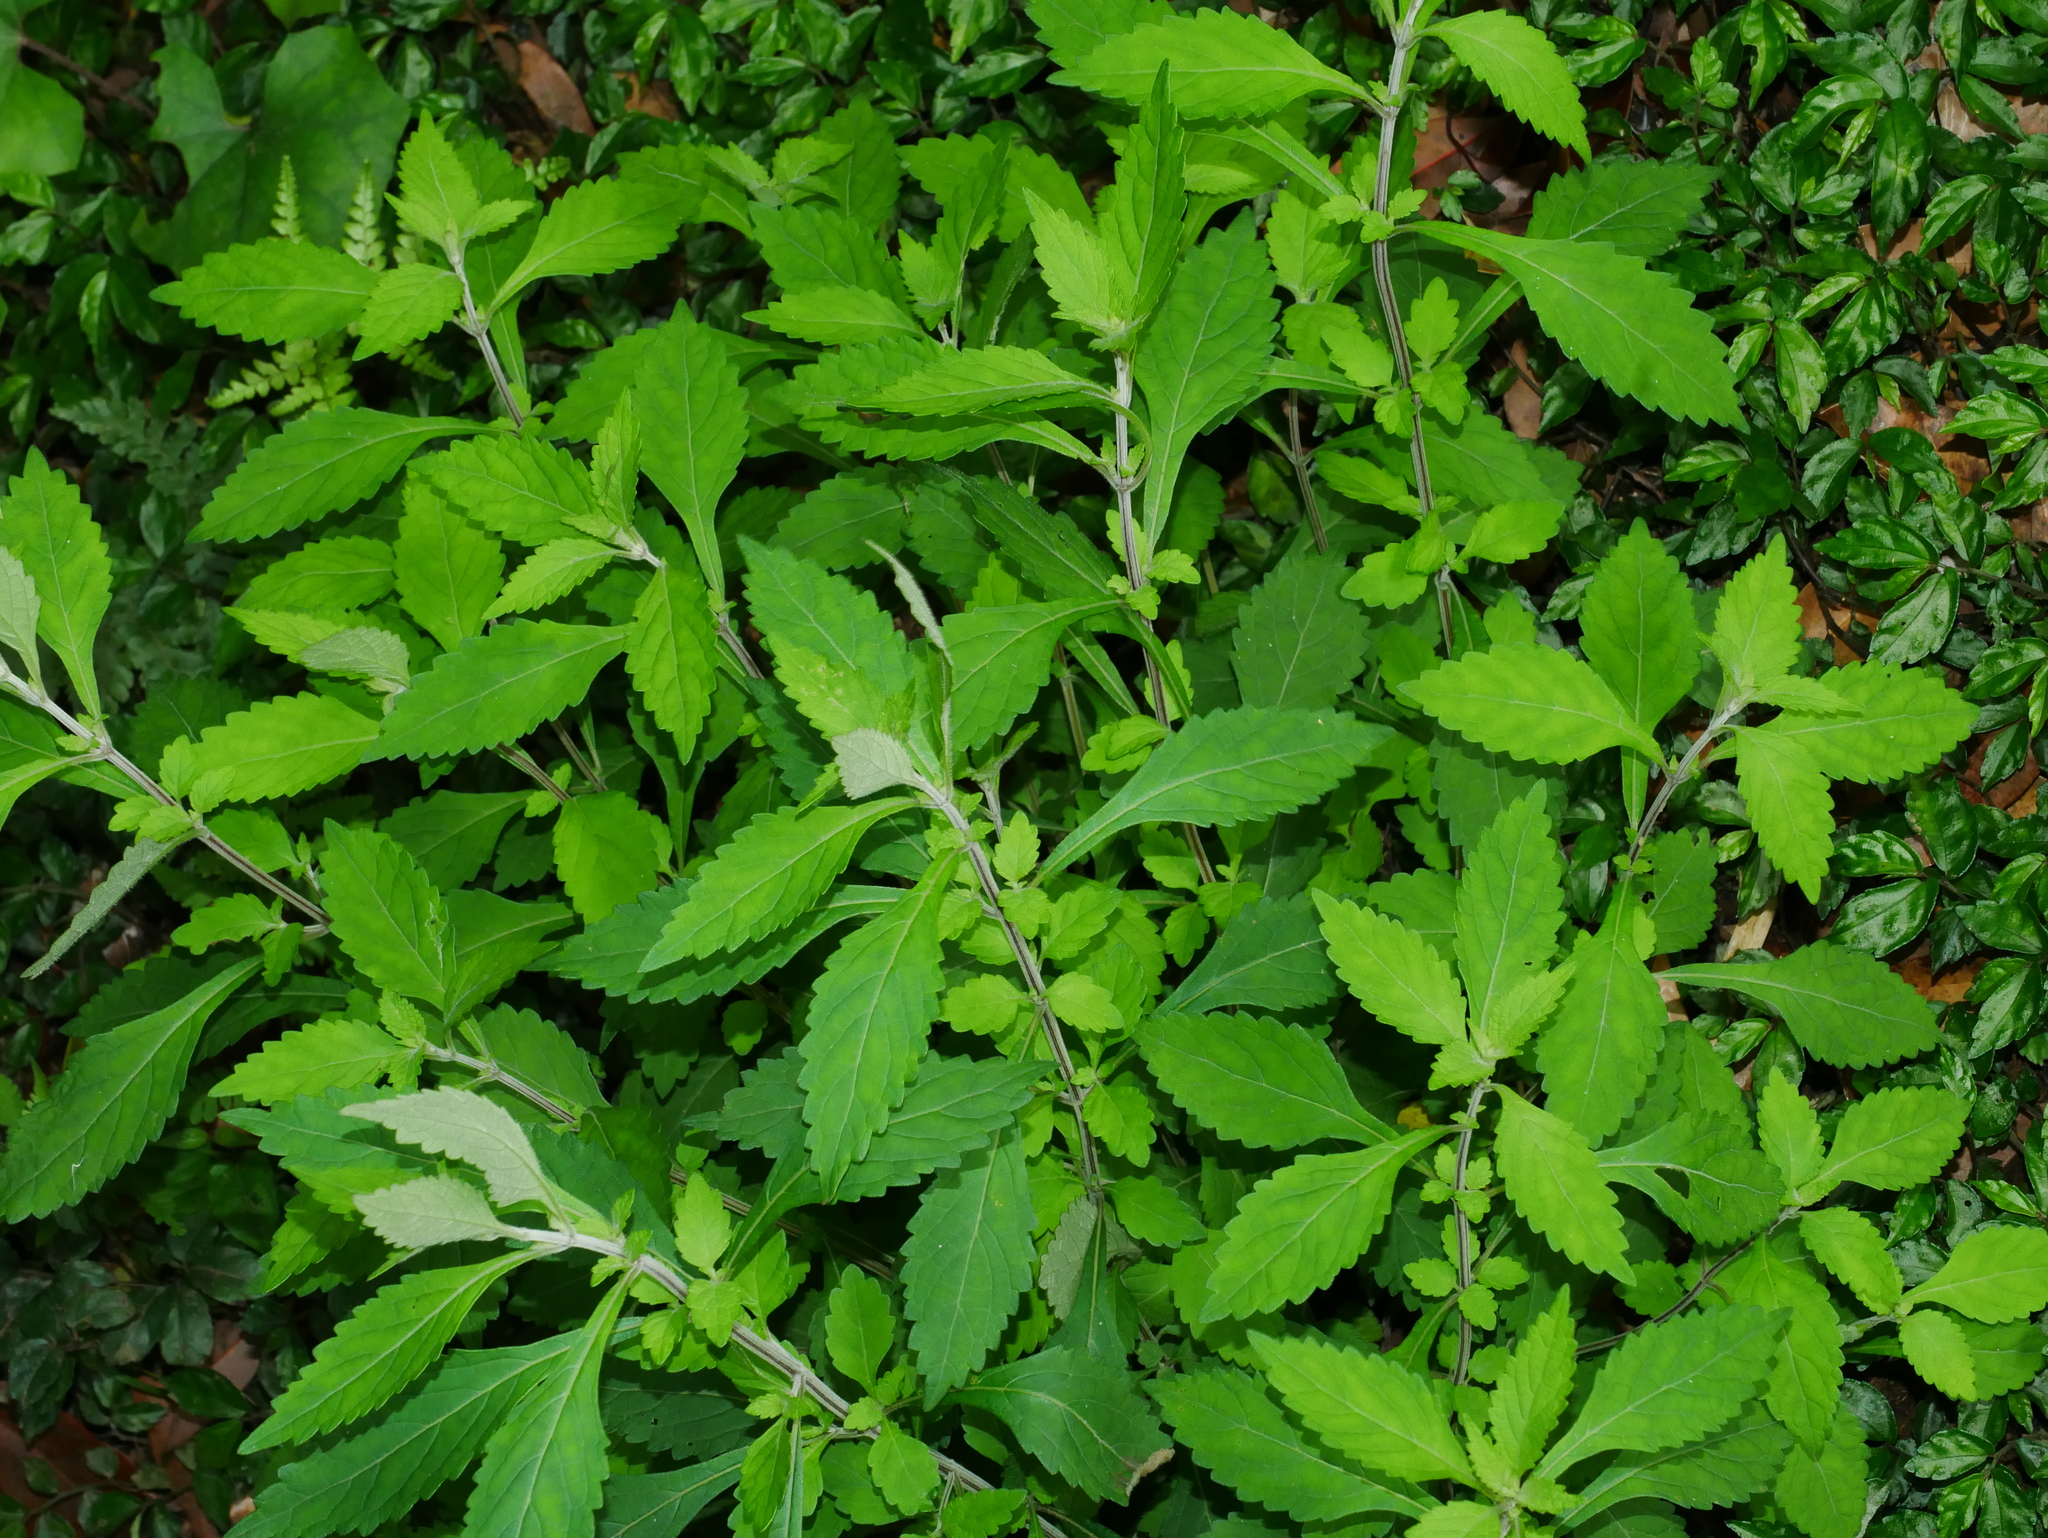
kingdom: Plantae
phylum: Tracheophyta
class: Magnoliopsida
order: Lamiales
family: Acanthaceae
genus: Strobilanthes
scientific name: Strobilanthes formosana
